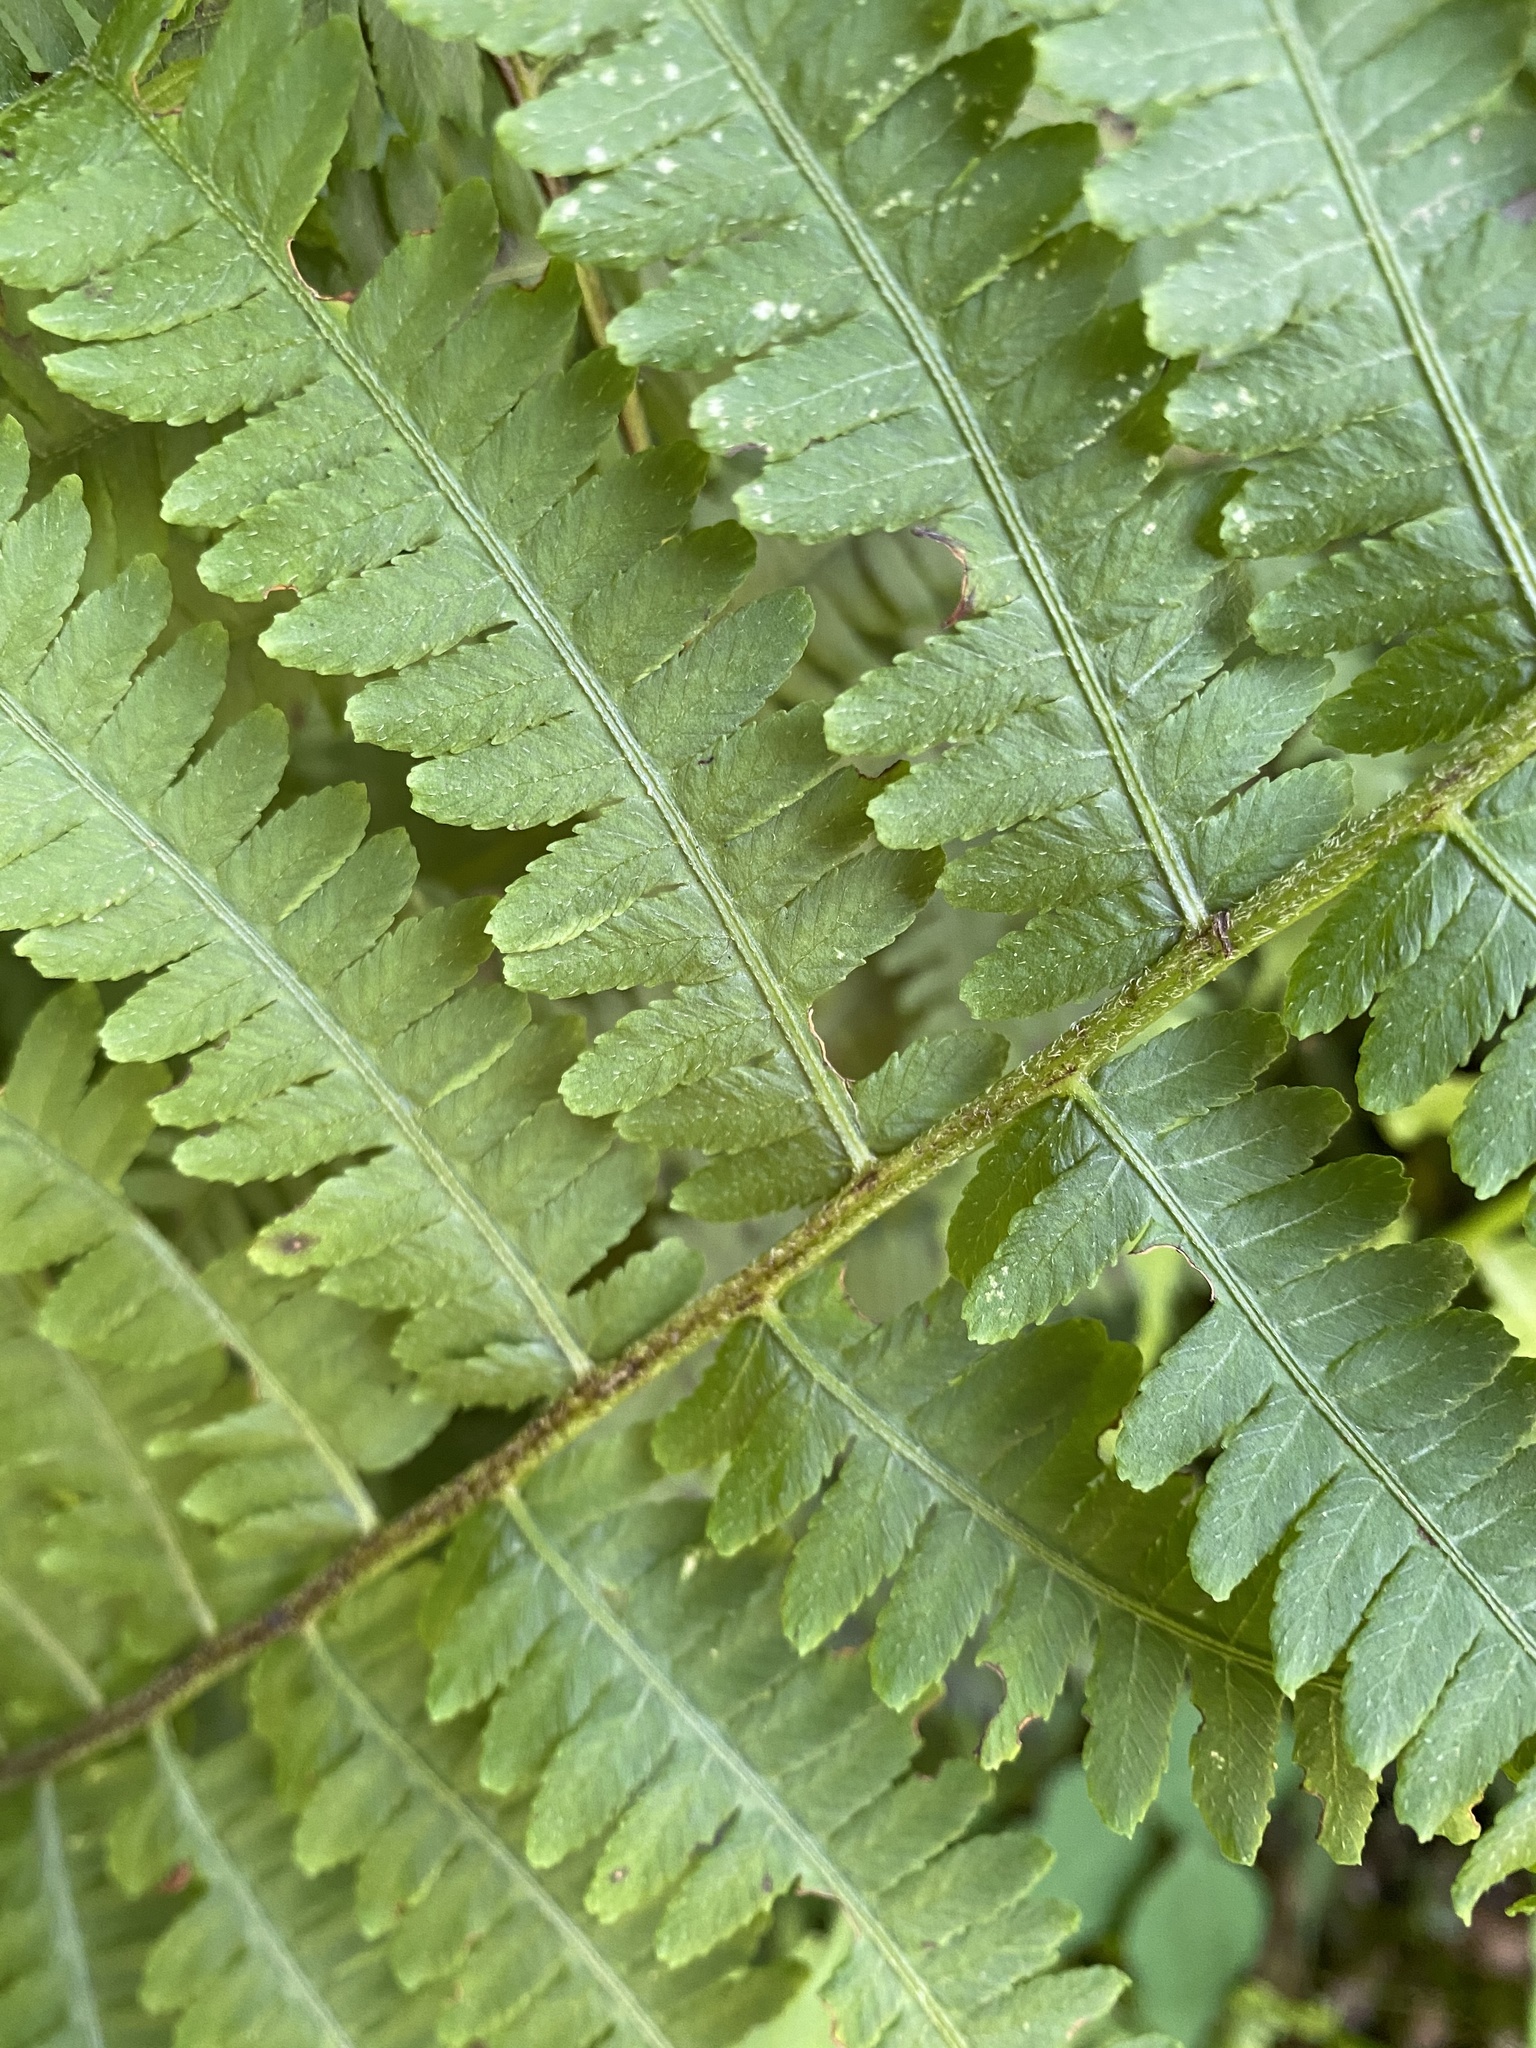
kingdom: Plantae
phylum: Tracheophyta
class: Polypodiopsida
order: Polypodiales
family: Athyriaceae
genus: Deparia
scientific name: Deparia acrostichoides
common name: Silver false spleenwort
